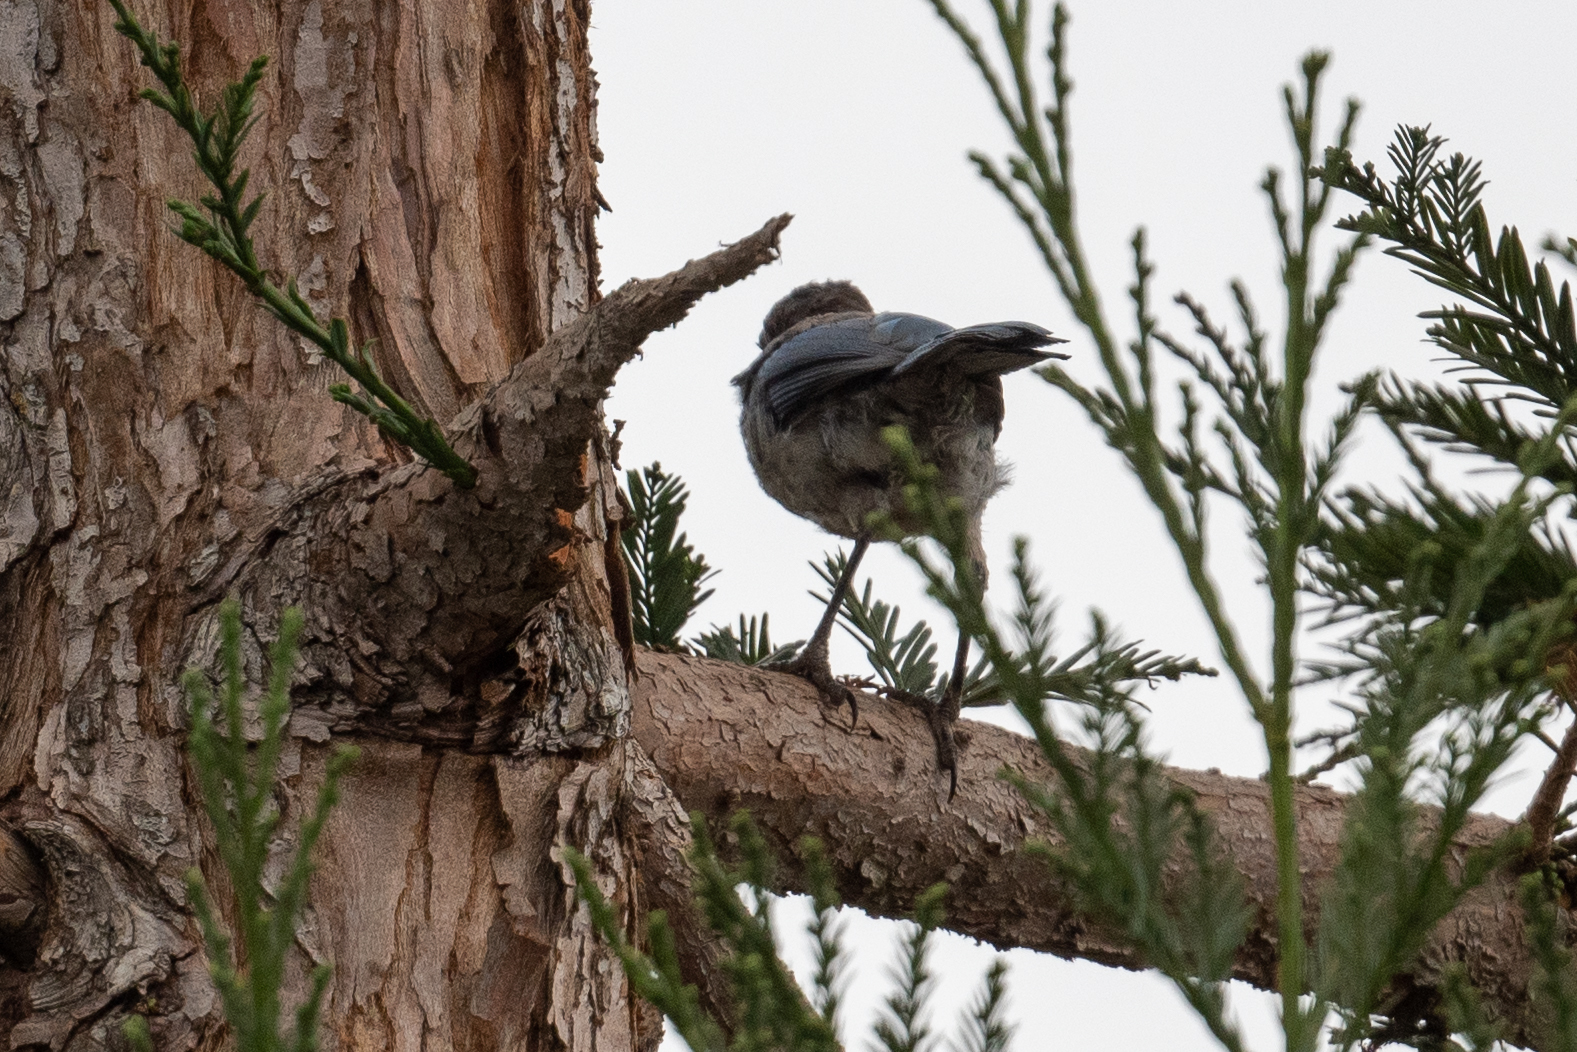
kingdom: Animalia
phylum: Chordata
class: Aves
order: Passeriformes
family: Corvidae
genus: Aphelocoma
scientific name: Aphelocoma californica
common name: California scrub-jay
